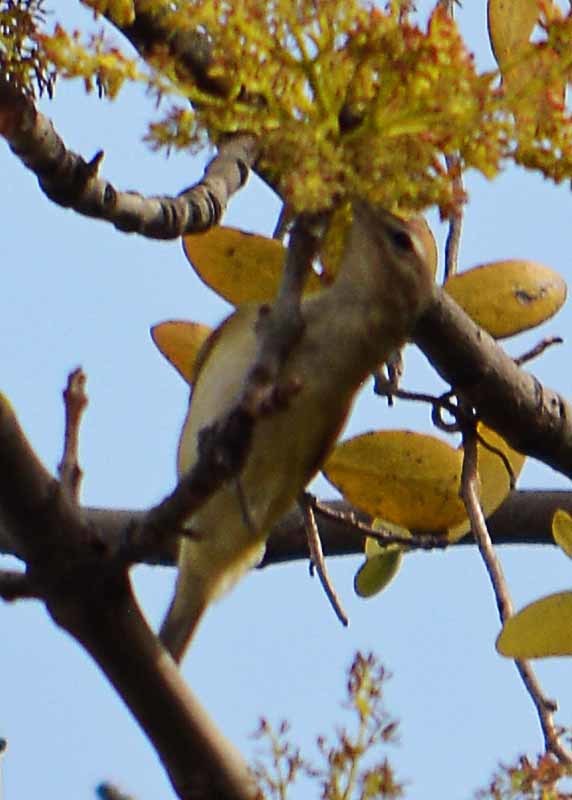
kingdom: Animalia
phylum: Chordata
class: Aves
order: Passeriformes
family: Vireonidae
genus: Vireo
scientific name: Vireo gilvus
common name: Warbling vireo
